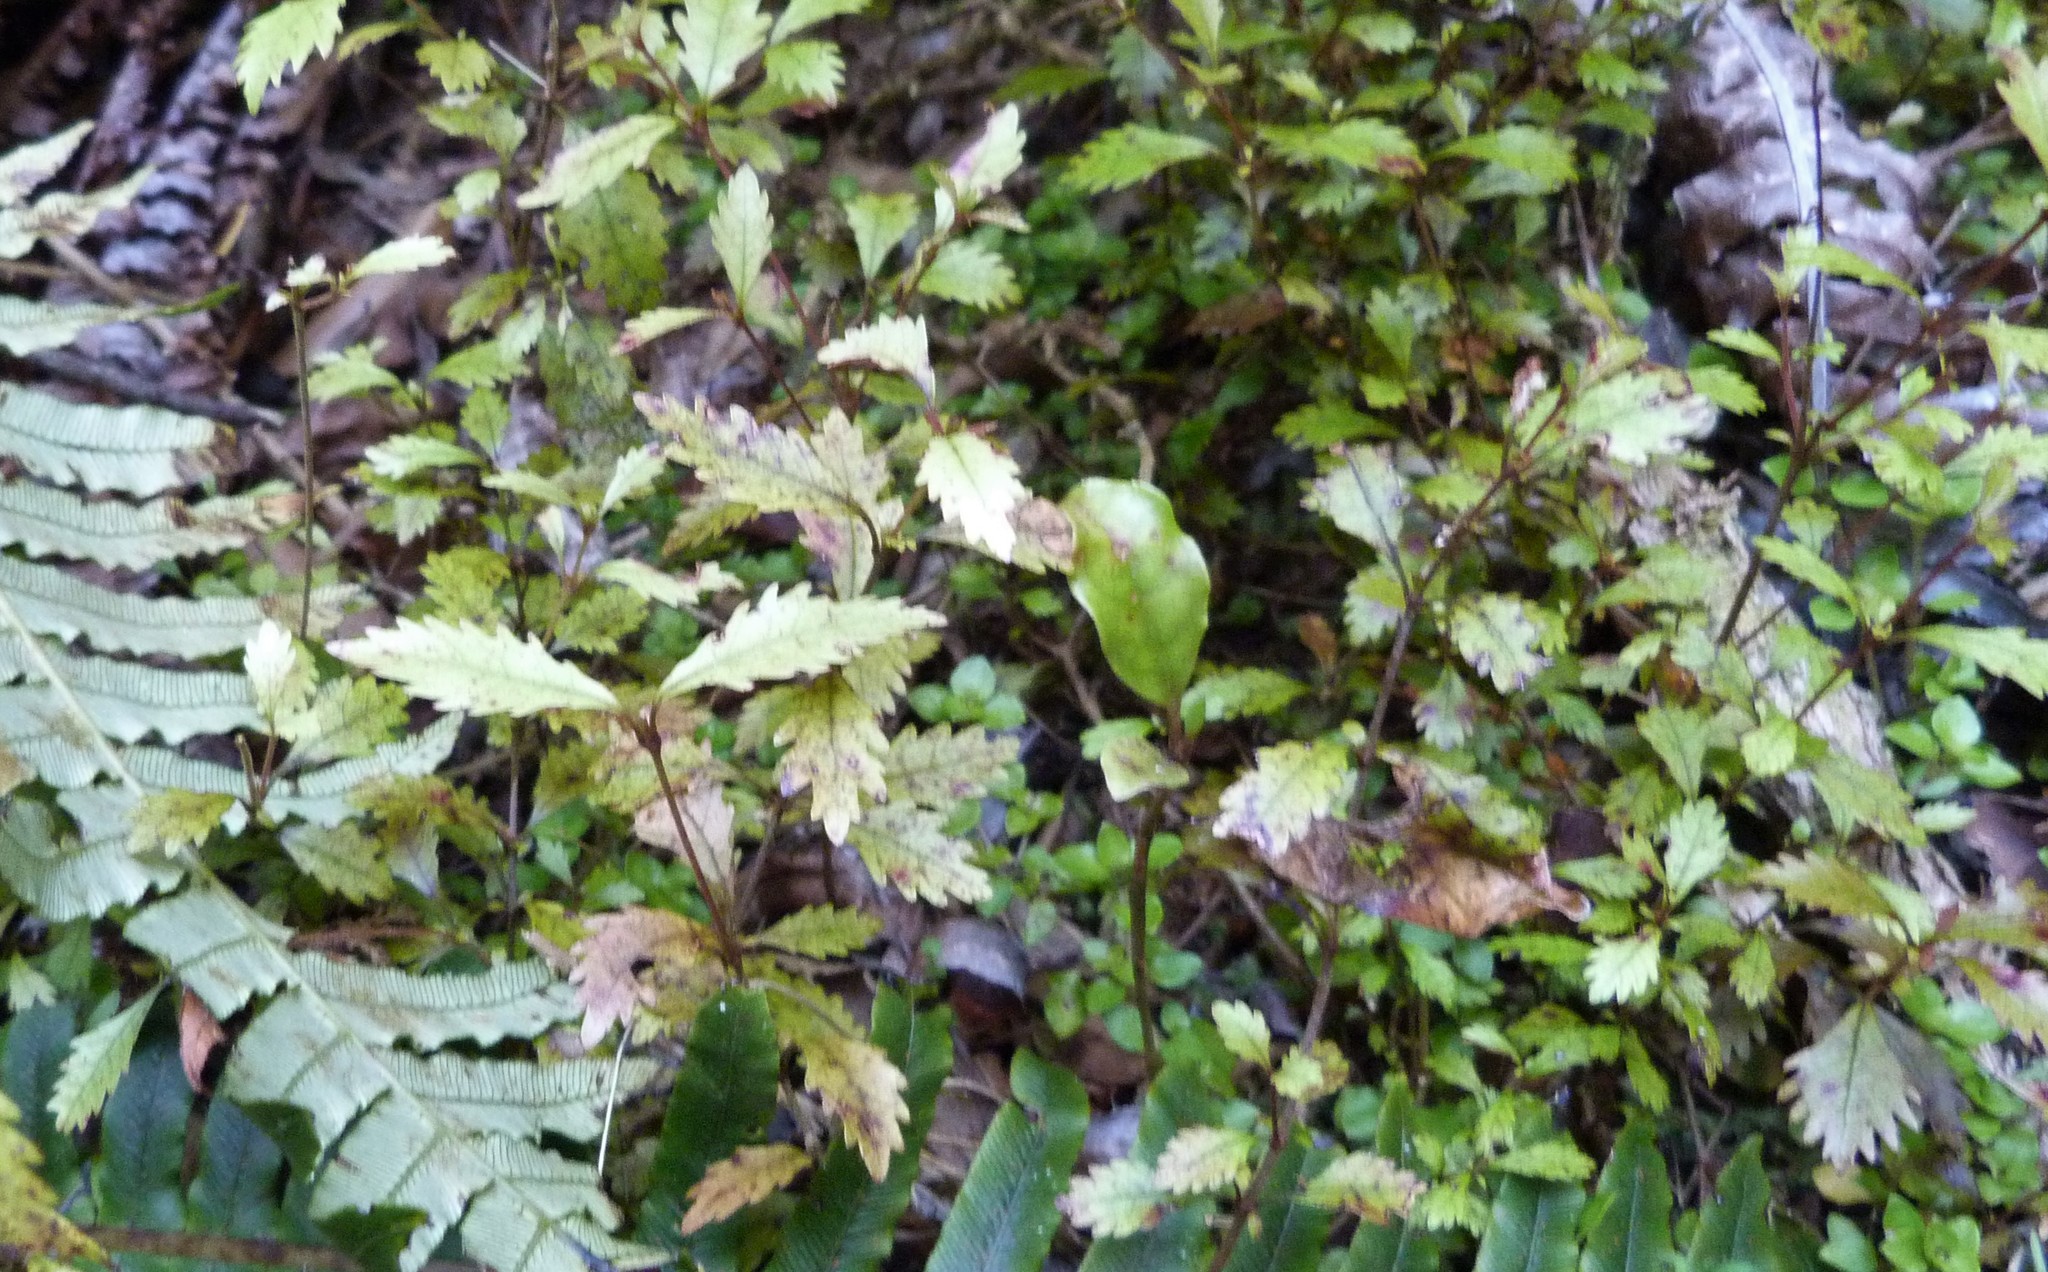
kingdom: Plantae
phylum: Tracheophyta
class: Magnoliopsida
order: Oxalidales
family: Cunoniaceae
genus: Pterophylla
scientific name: Pterophylla racemosa
